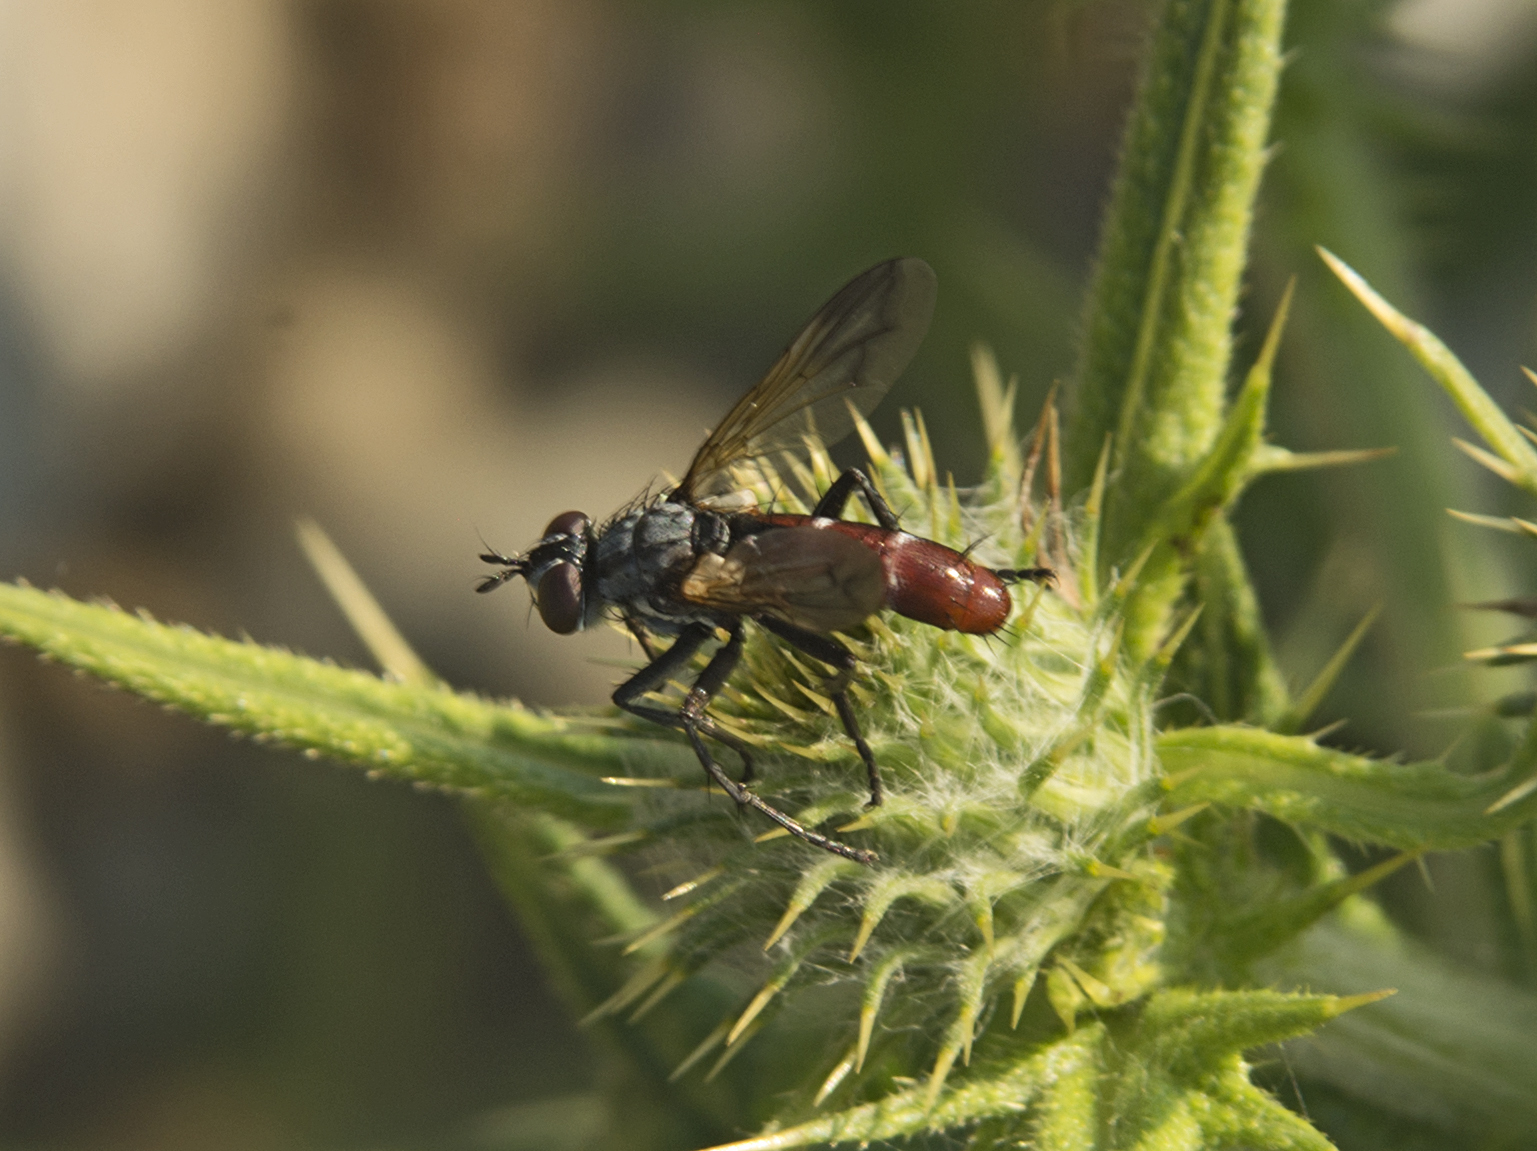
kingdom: Animalia
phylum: Arthropoda
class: Insecta
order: Diptera
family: Tachinidae
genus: Cylindromyia
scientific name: Cylindromyia bicolor
